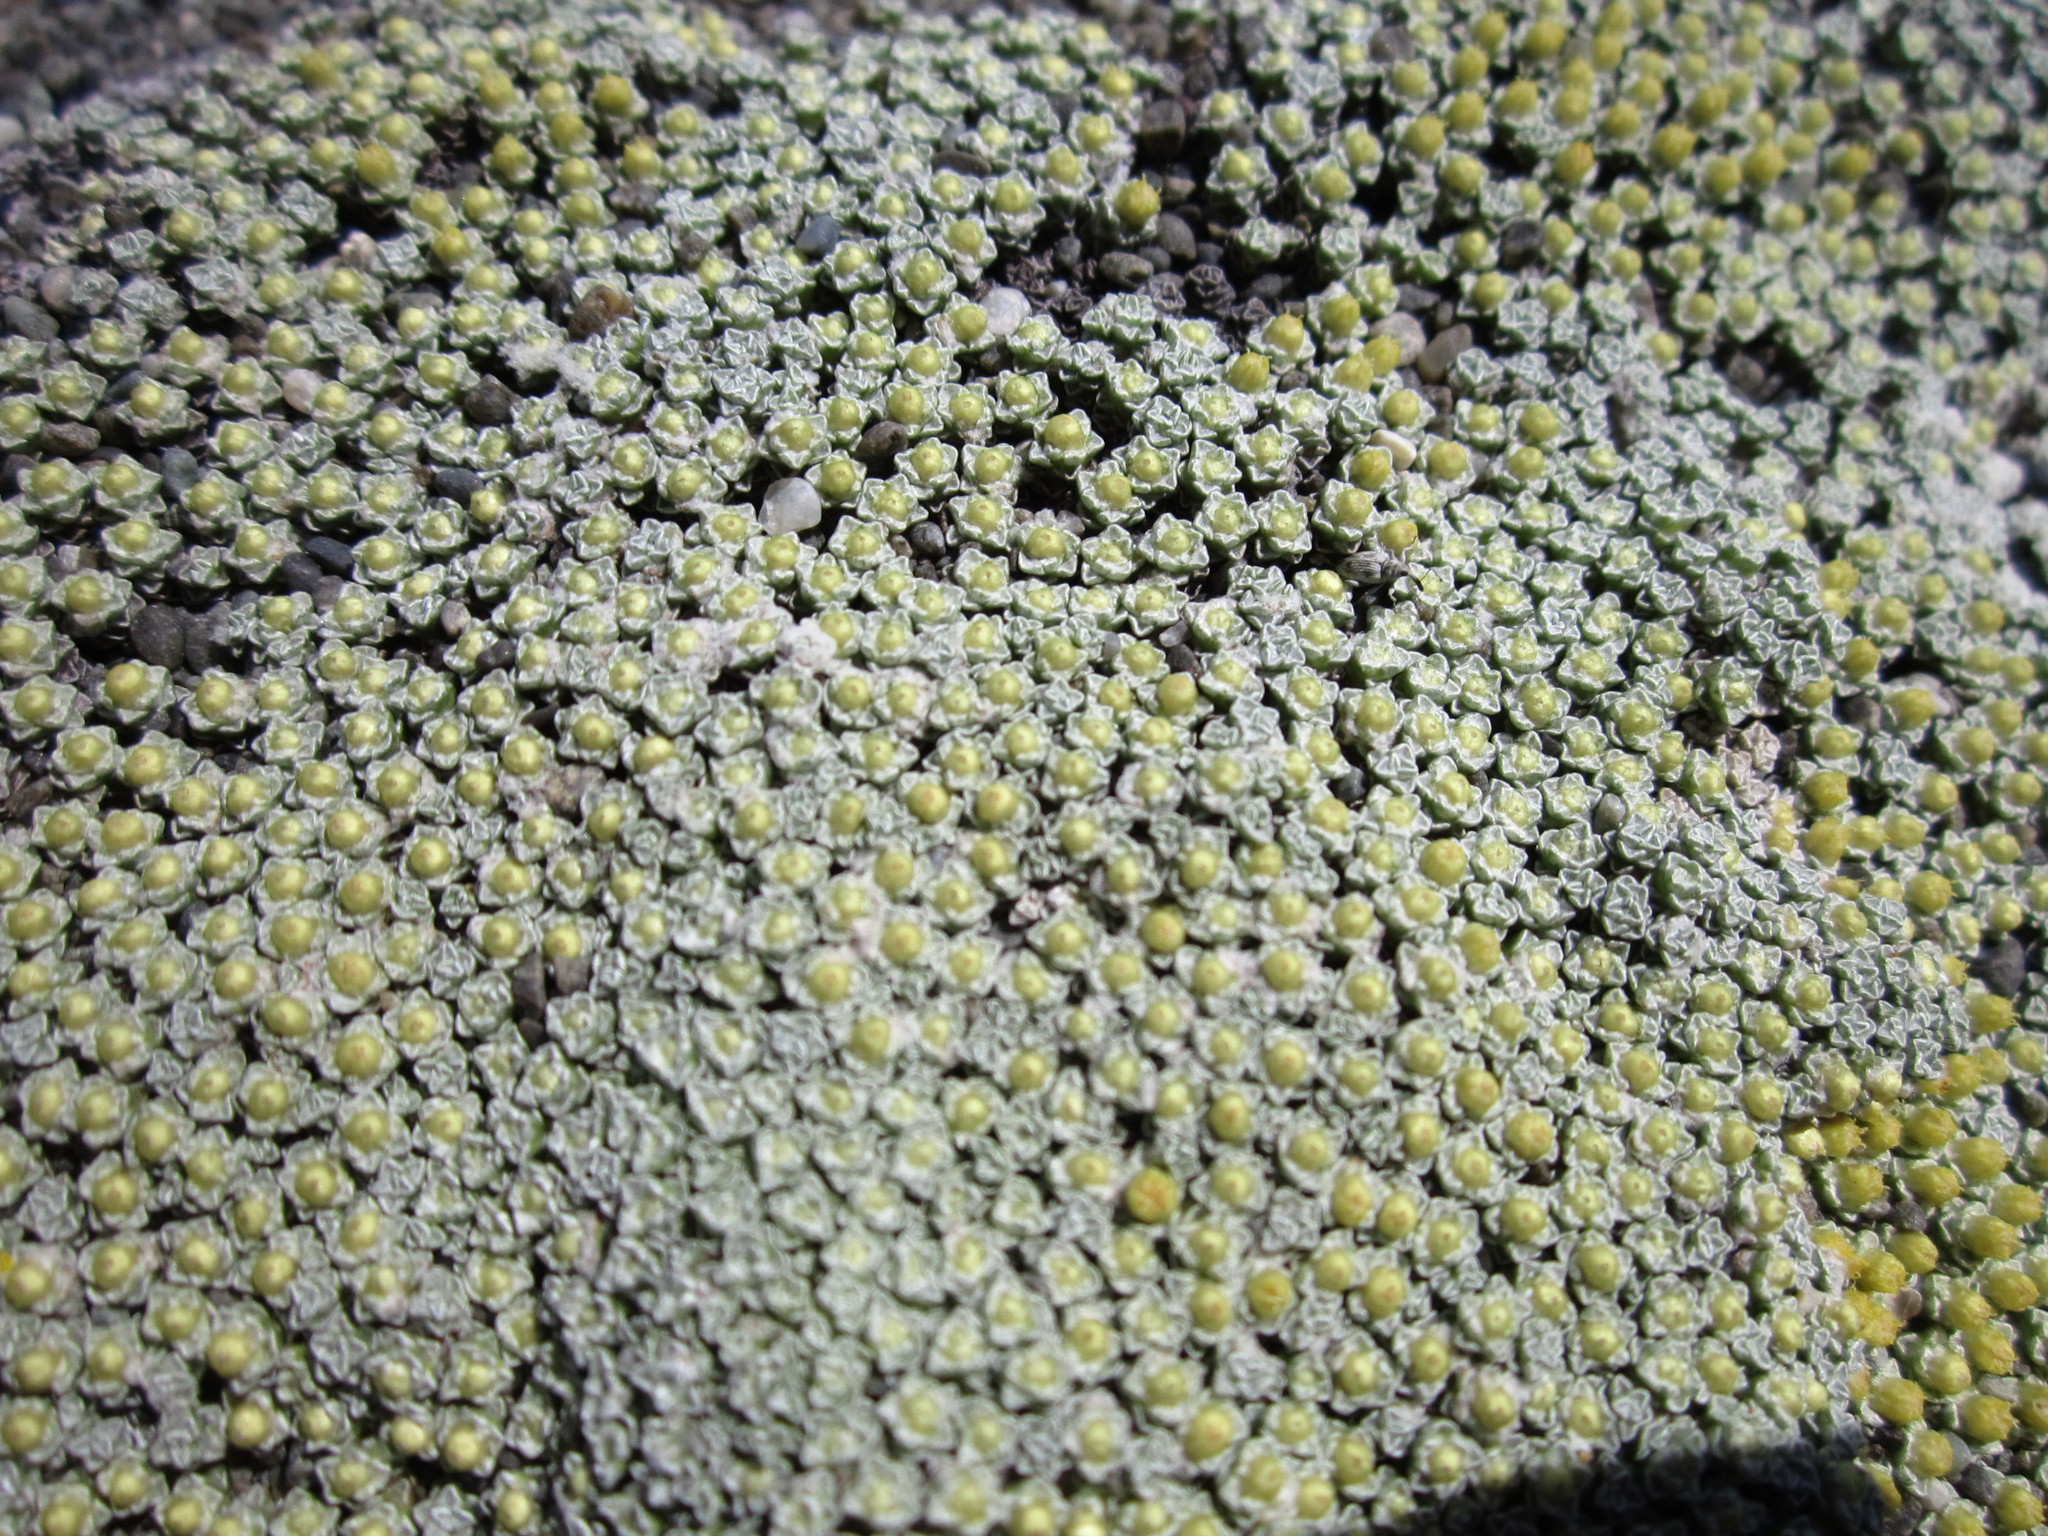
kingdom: Plantae
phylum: Tracheophyta
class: Magnoliopsida
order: Asterales
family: Asteraceae
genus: Raoulia
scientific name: Raoulia australis
